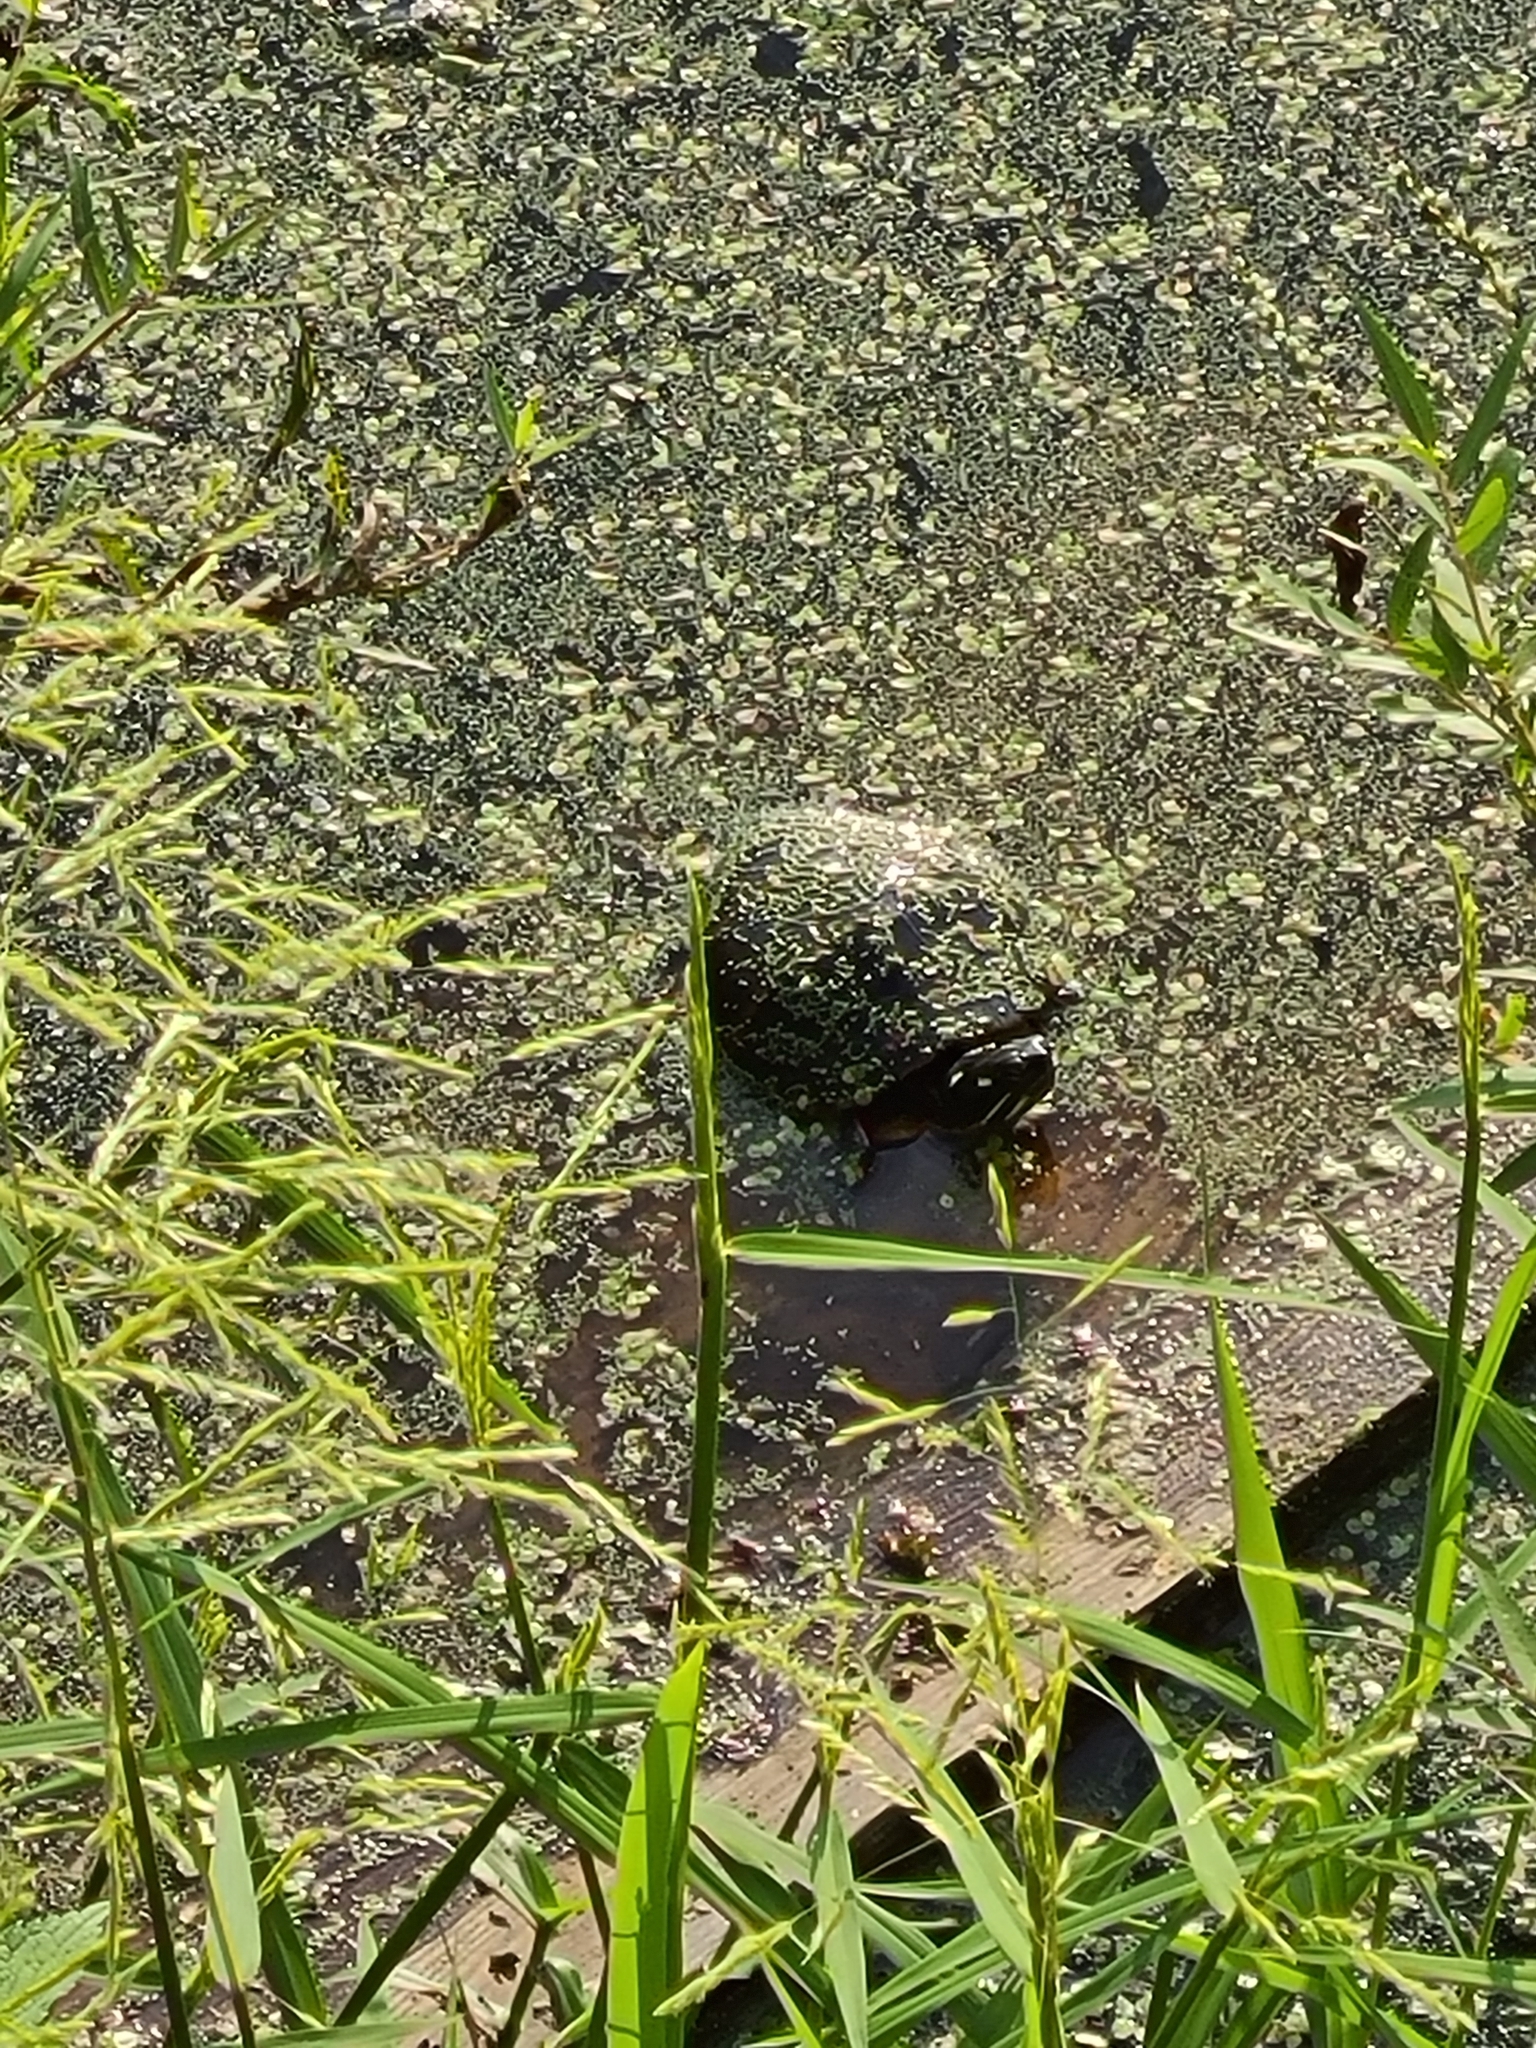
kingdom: Animalia
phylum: Chordata
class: Testudines
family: Emydidae
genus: Chrysemys
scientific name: Chrysemys picta
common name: Painted turtle
